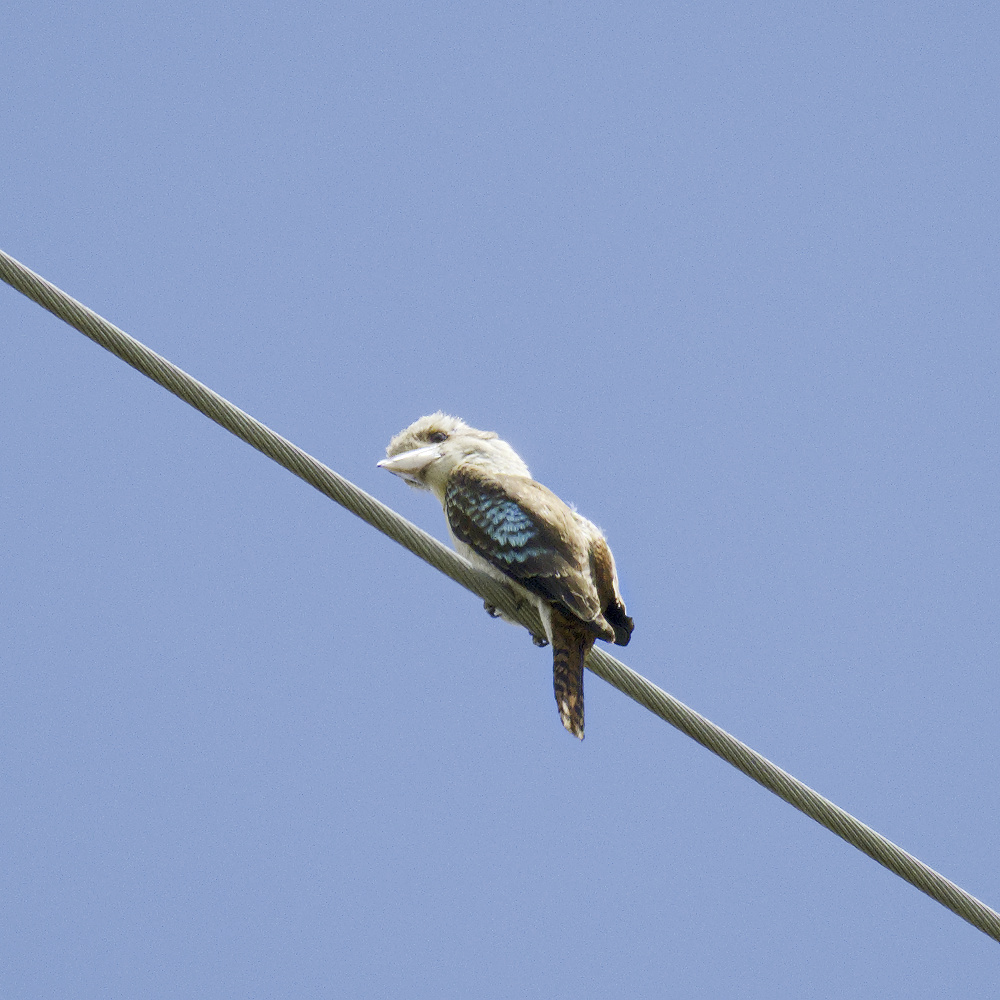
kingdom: Animalia
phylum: Chordata
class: Aves
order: Coraciiformes
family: Alcedinidae
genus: Dacelo
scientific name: Dacelo novaeguineae
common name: Laughing kookaburra
